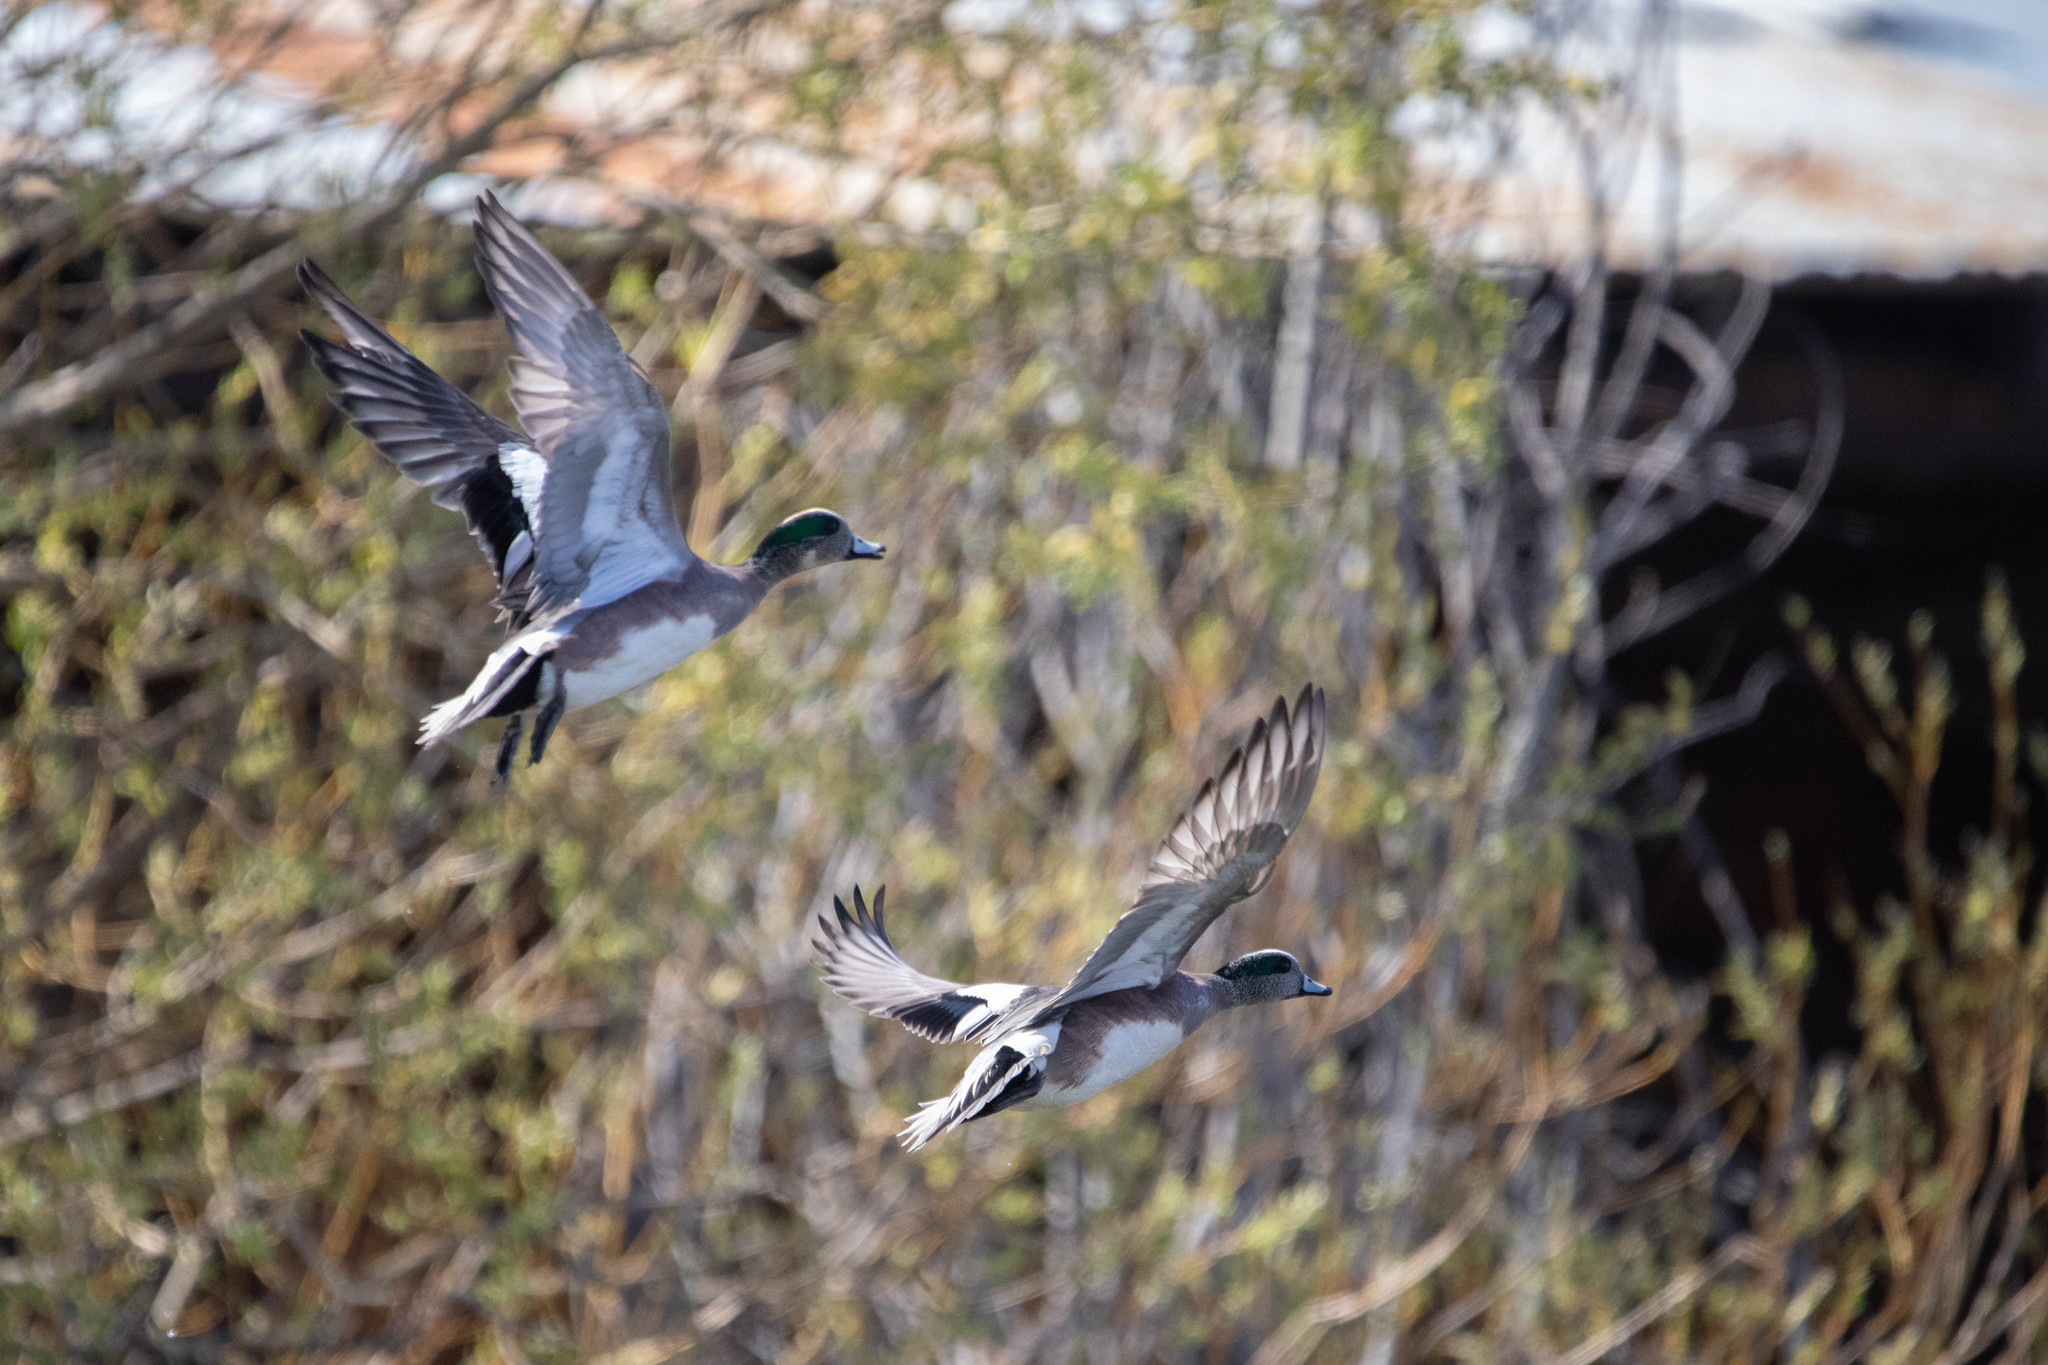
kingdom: Animalia
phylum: Chordata
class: Aves
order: Anseriformes
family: Anatidae
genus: Mareca
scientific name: Mareca americana
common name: American wigeon
